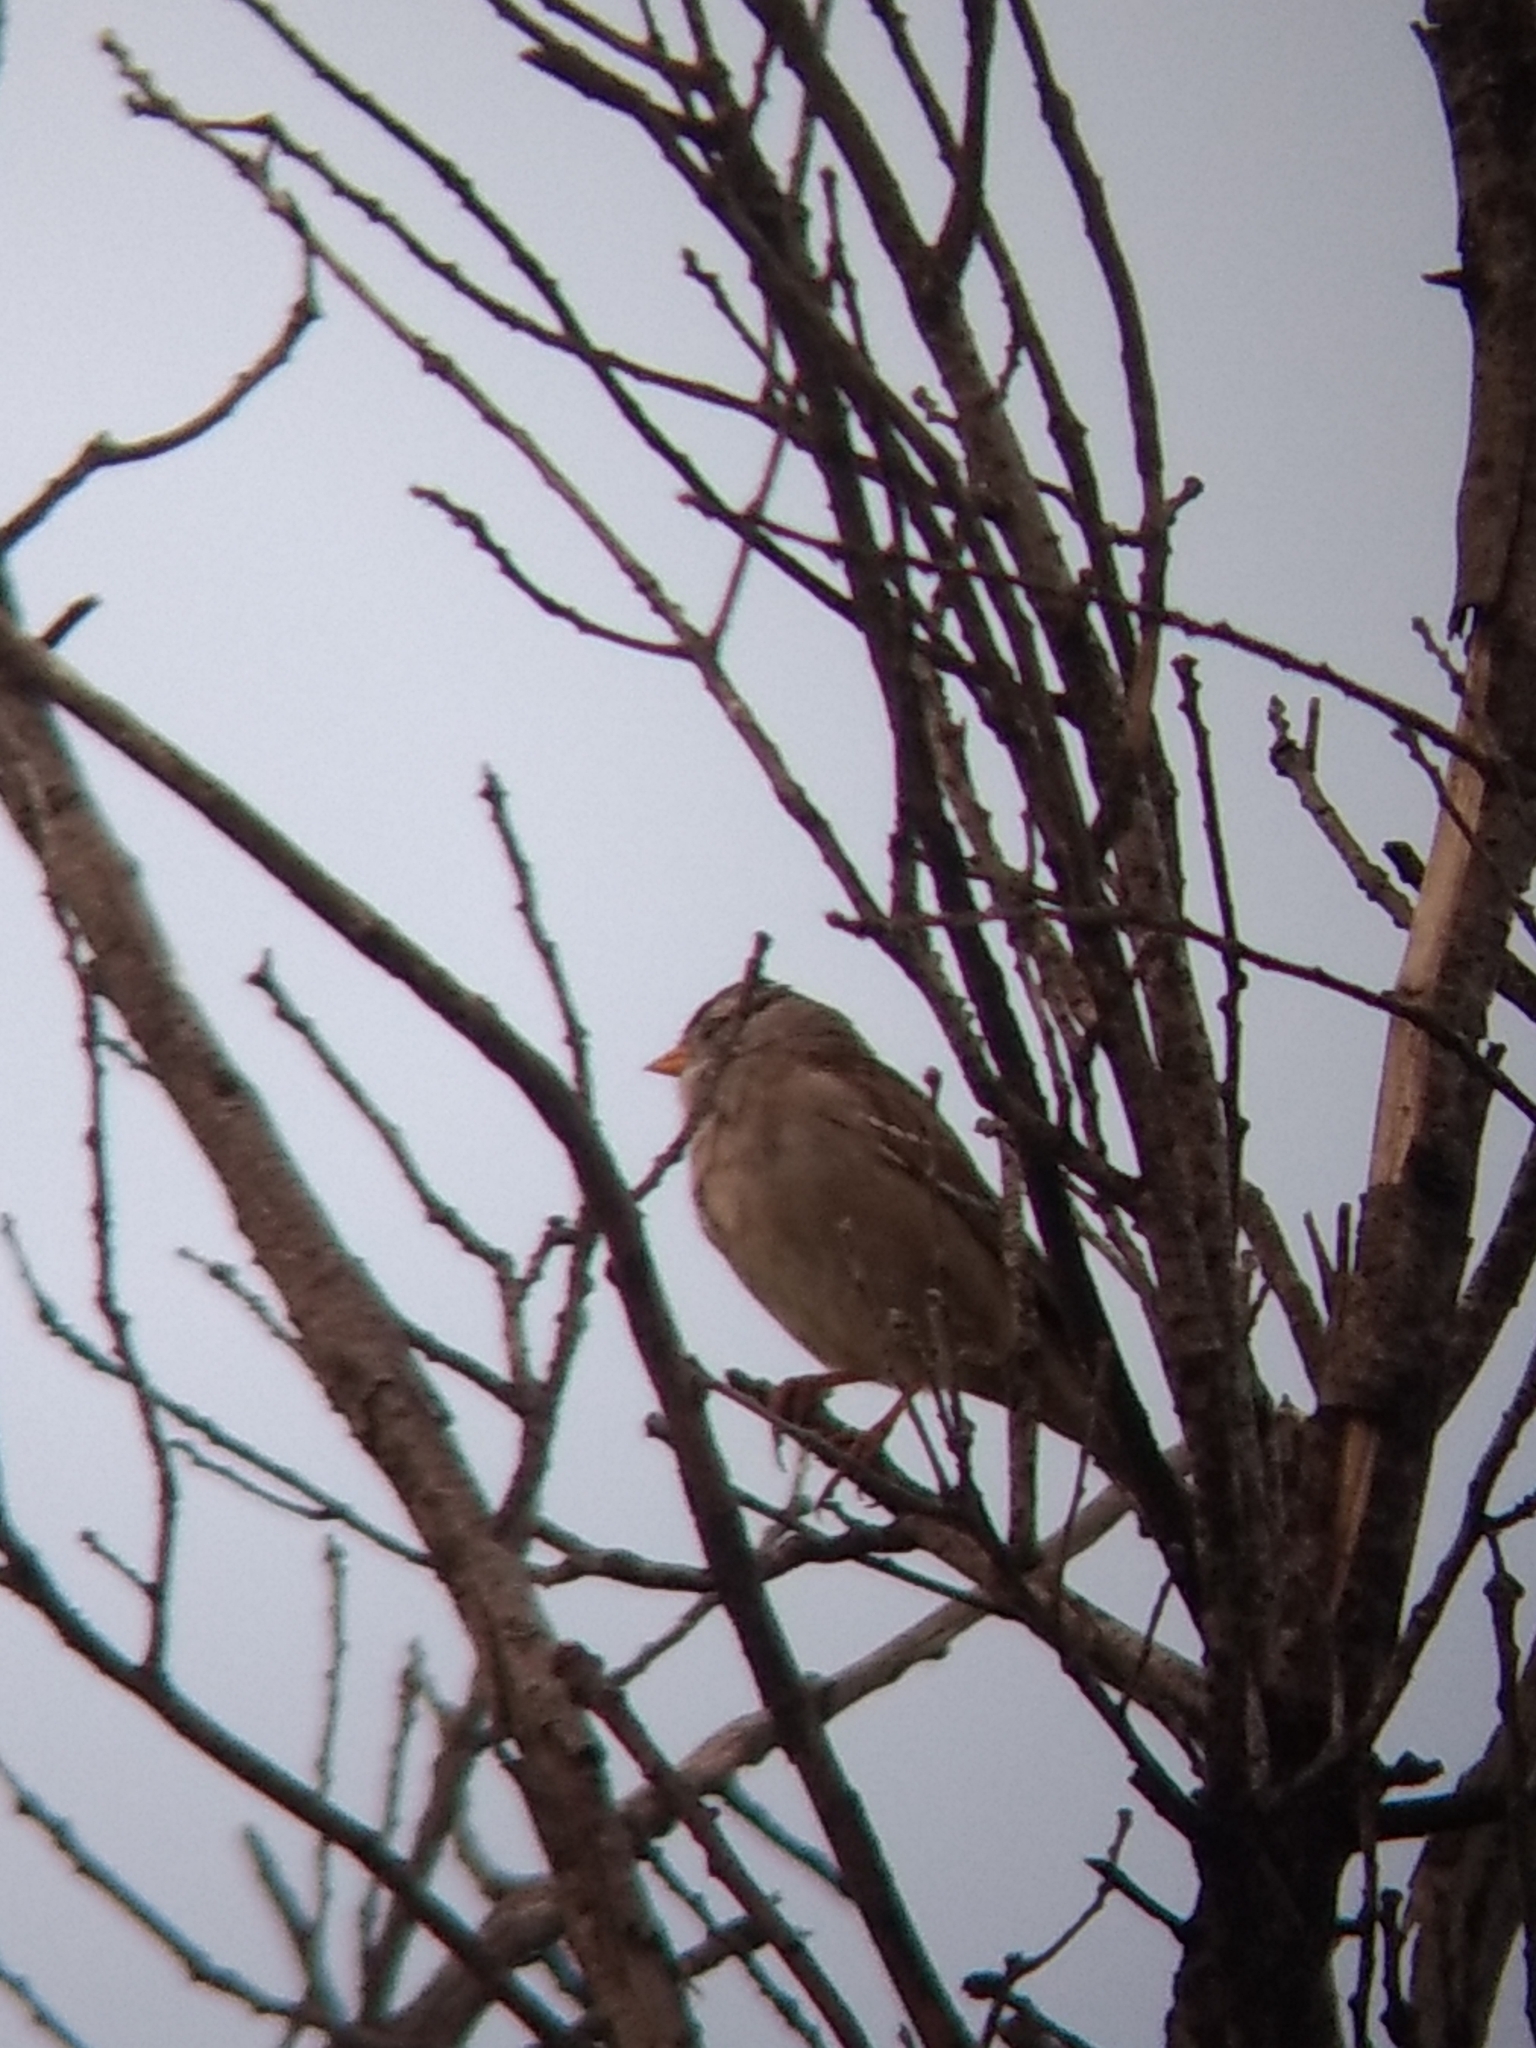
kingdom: Animalia
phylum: Chordata
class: Aves
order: Passeriformes
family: Passerellidae
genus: Zonotrichia
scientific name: Zonotrichia leucophrys
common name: White-crowned sparrow
